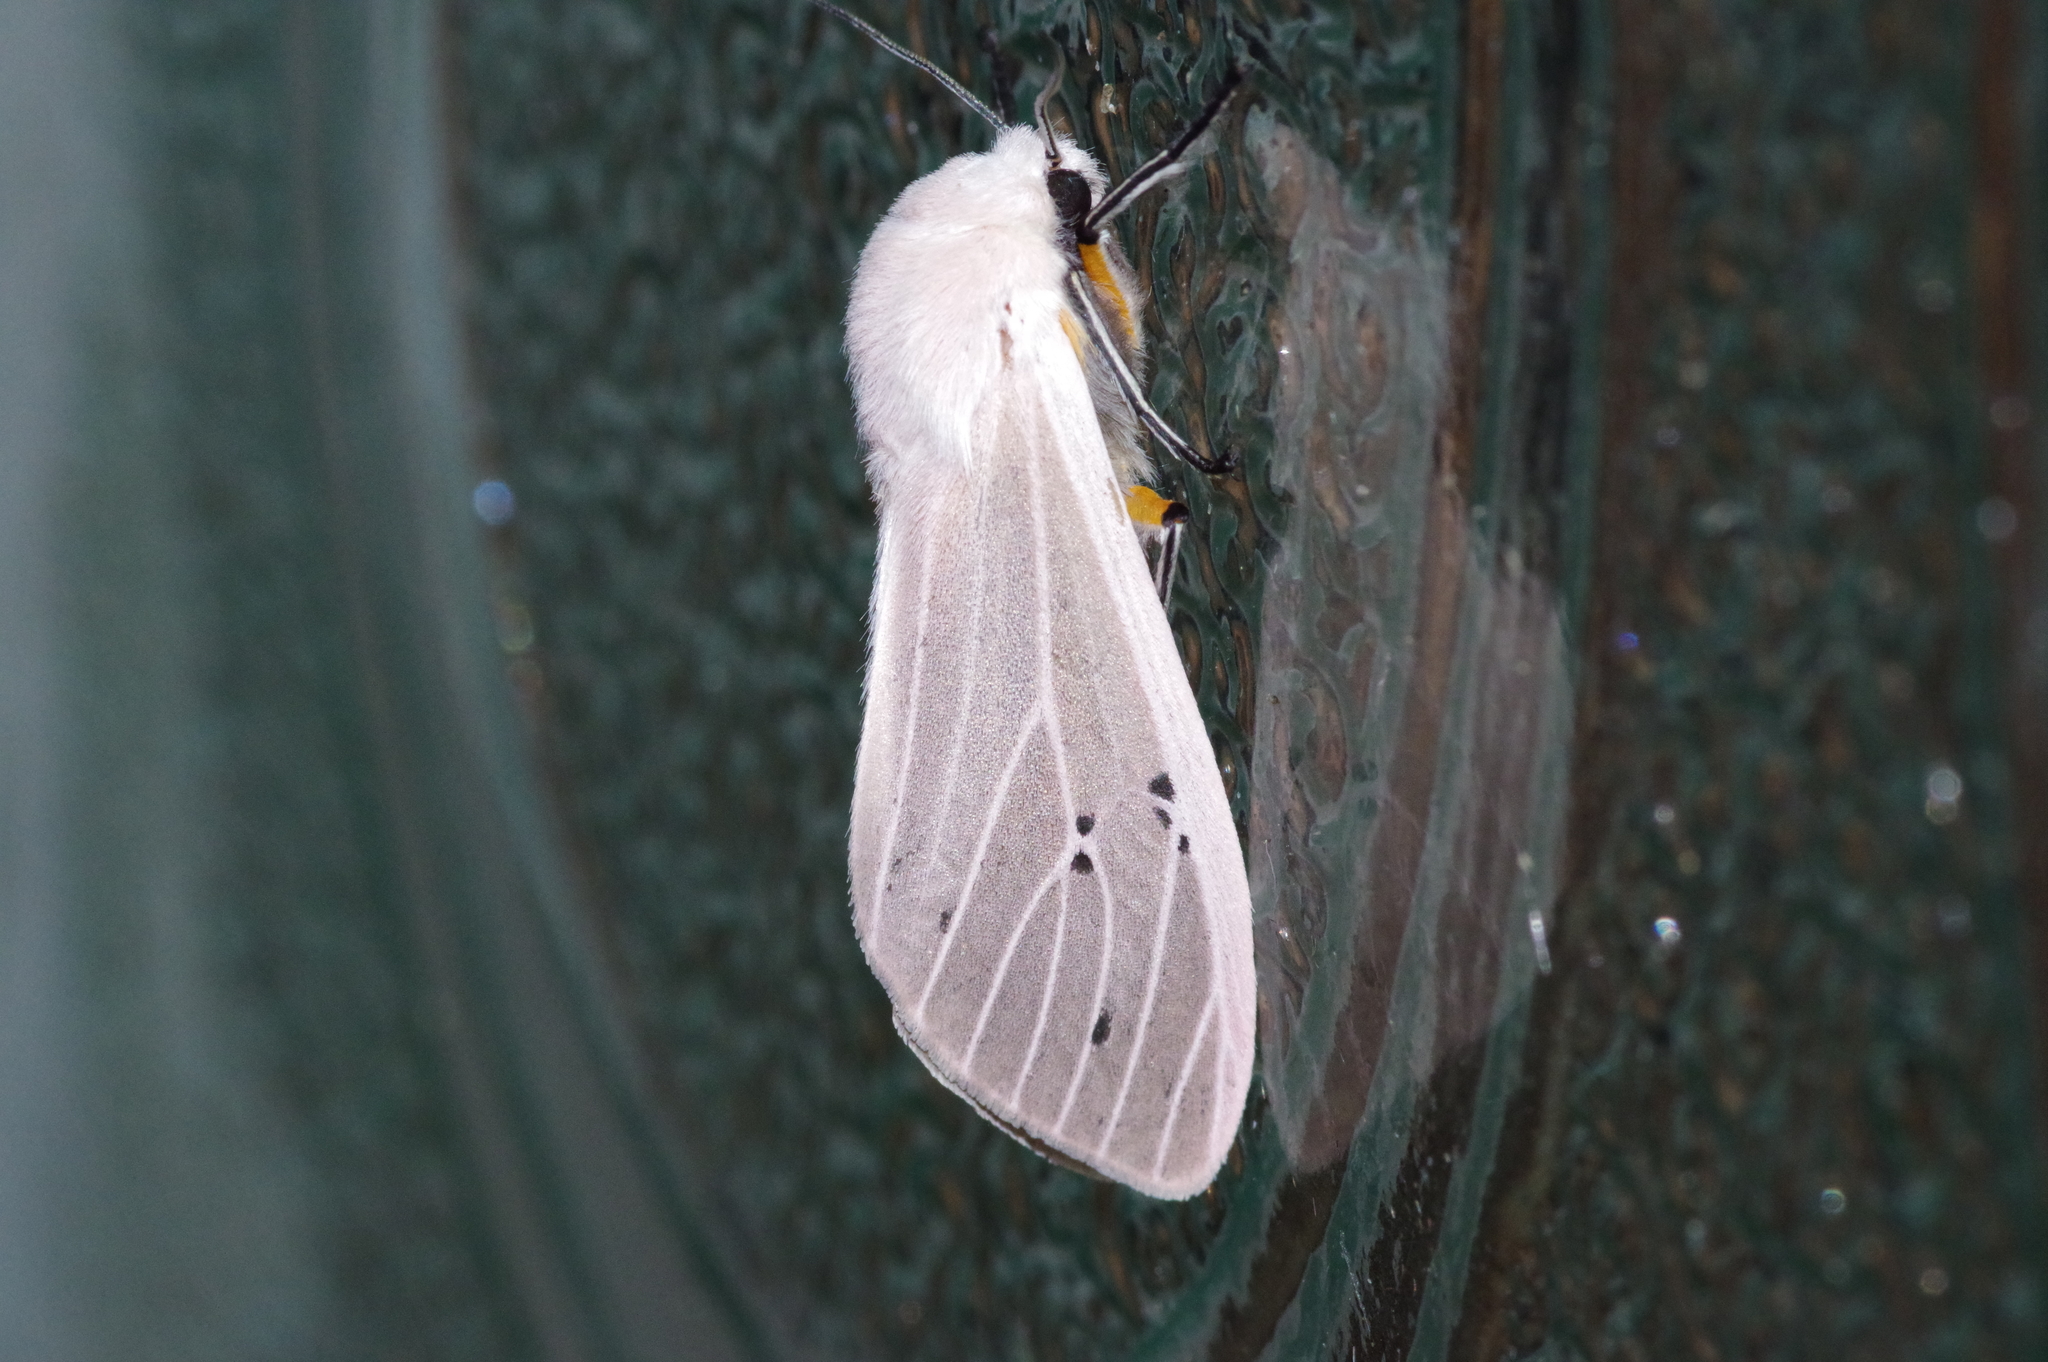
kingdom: Animalia
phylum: Arthropoda
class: Insecta
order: Lepidoptera
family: Erebidae
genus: Creatonotos
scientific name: Creatonotos transiens
